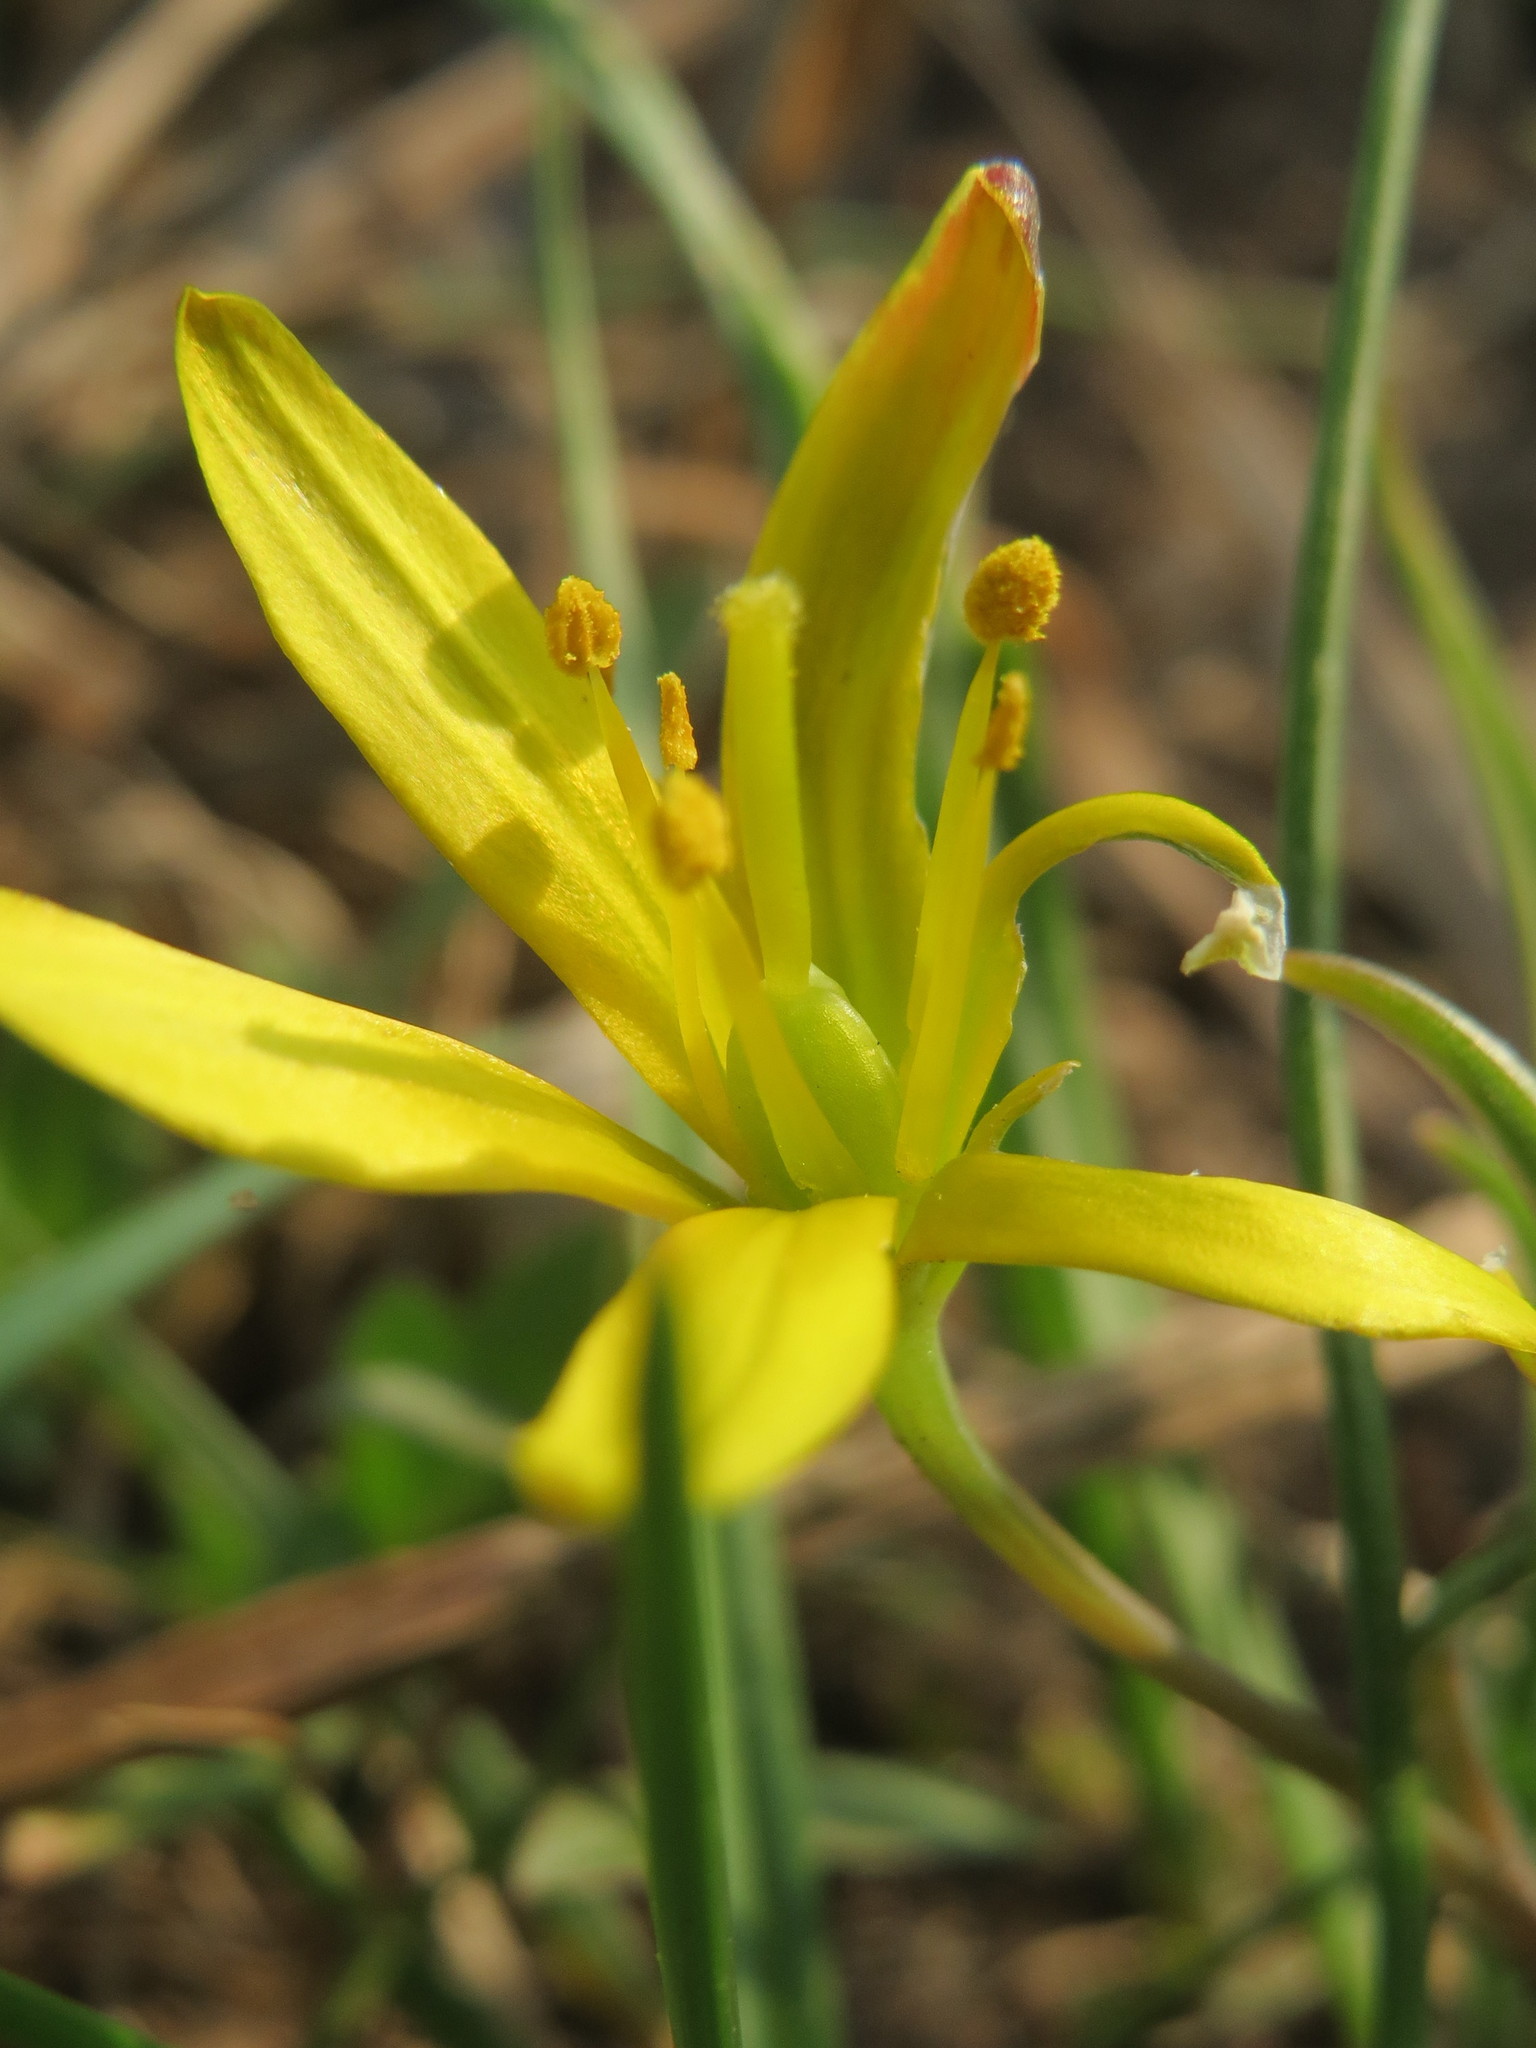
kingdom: Plantae
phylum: Tracheophyta
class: Liliopsida
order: Liliales
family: Liliaceae
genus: Gagea
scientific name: Gagea pratensis
